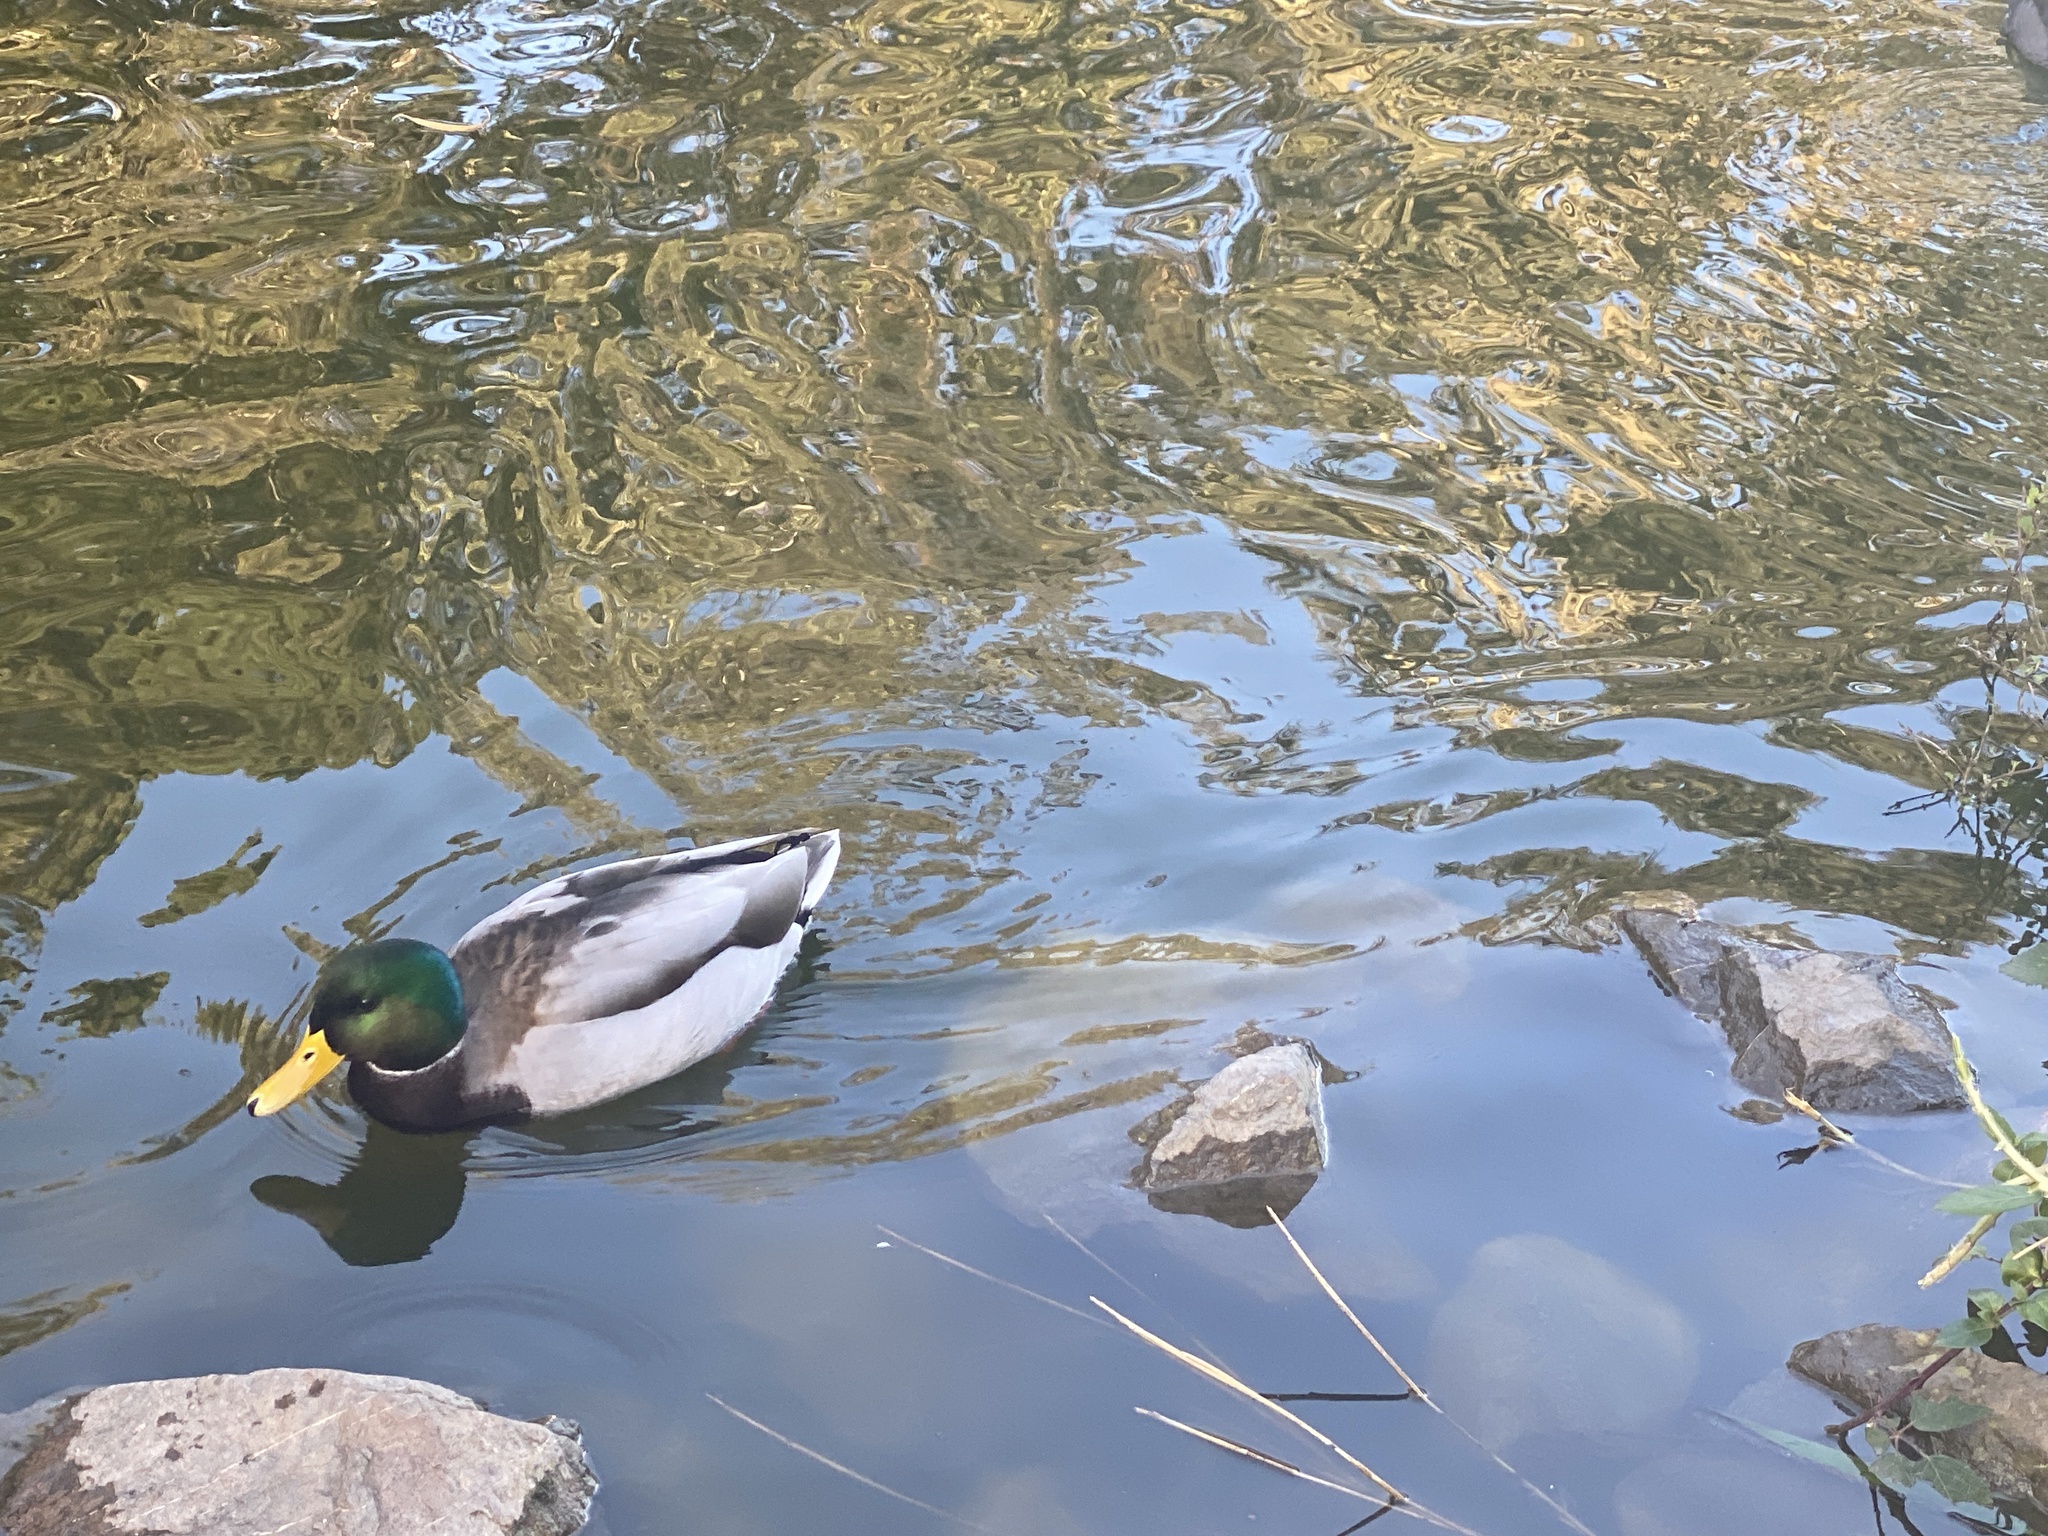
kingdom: Animalia
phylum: Chordata
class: Aves
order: Anseriformes
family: Anatidae
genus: Anas
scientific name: Anas platyrhynchos
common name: Mallard
